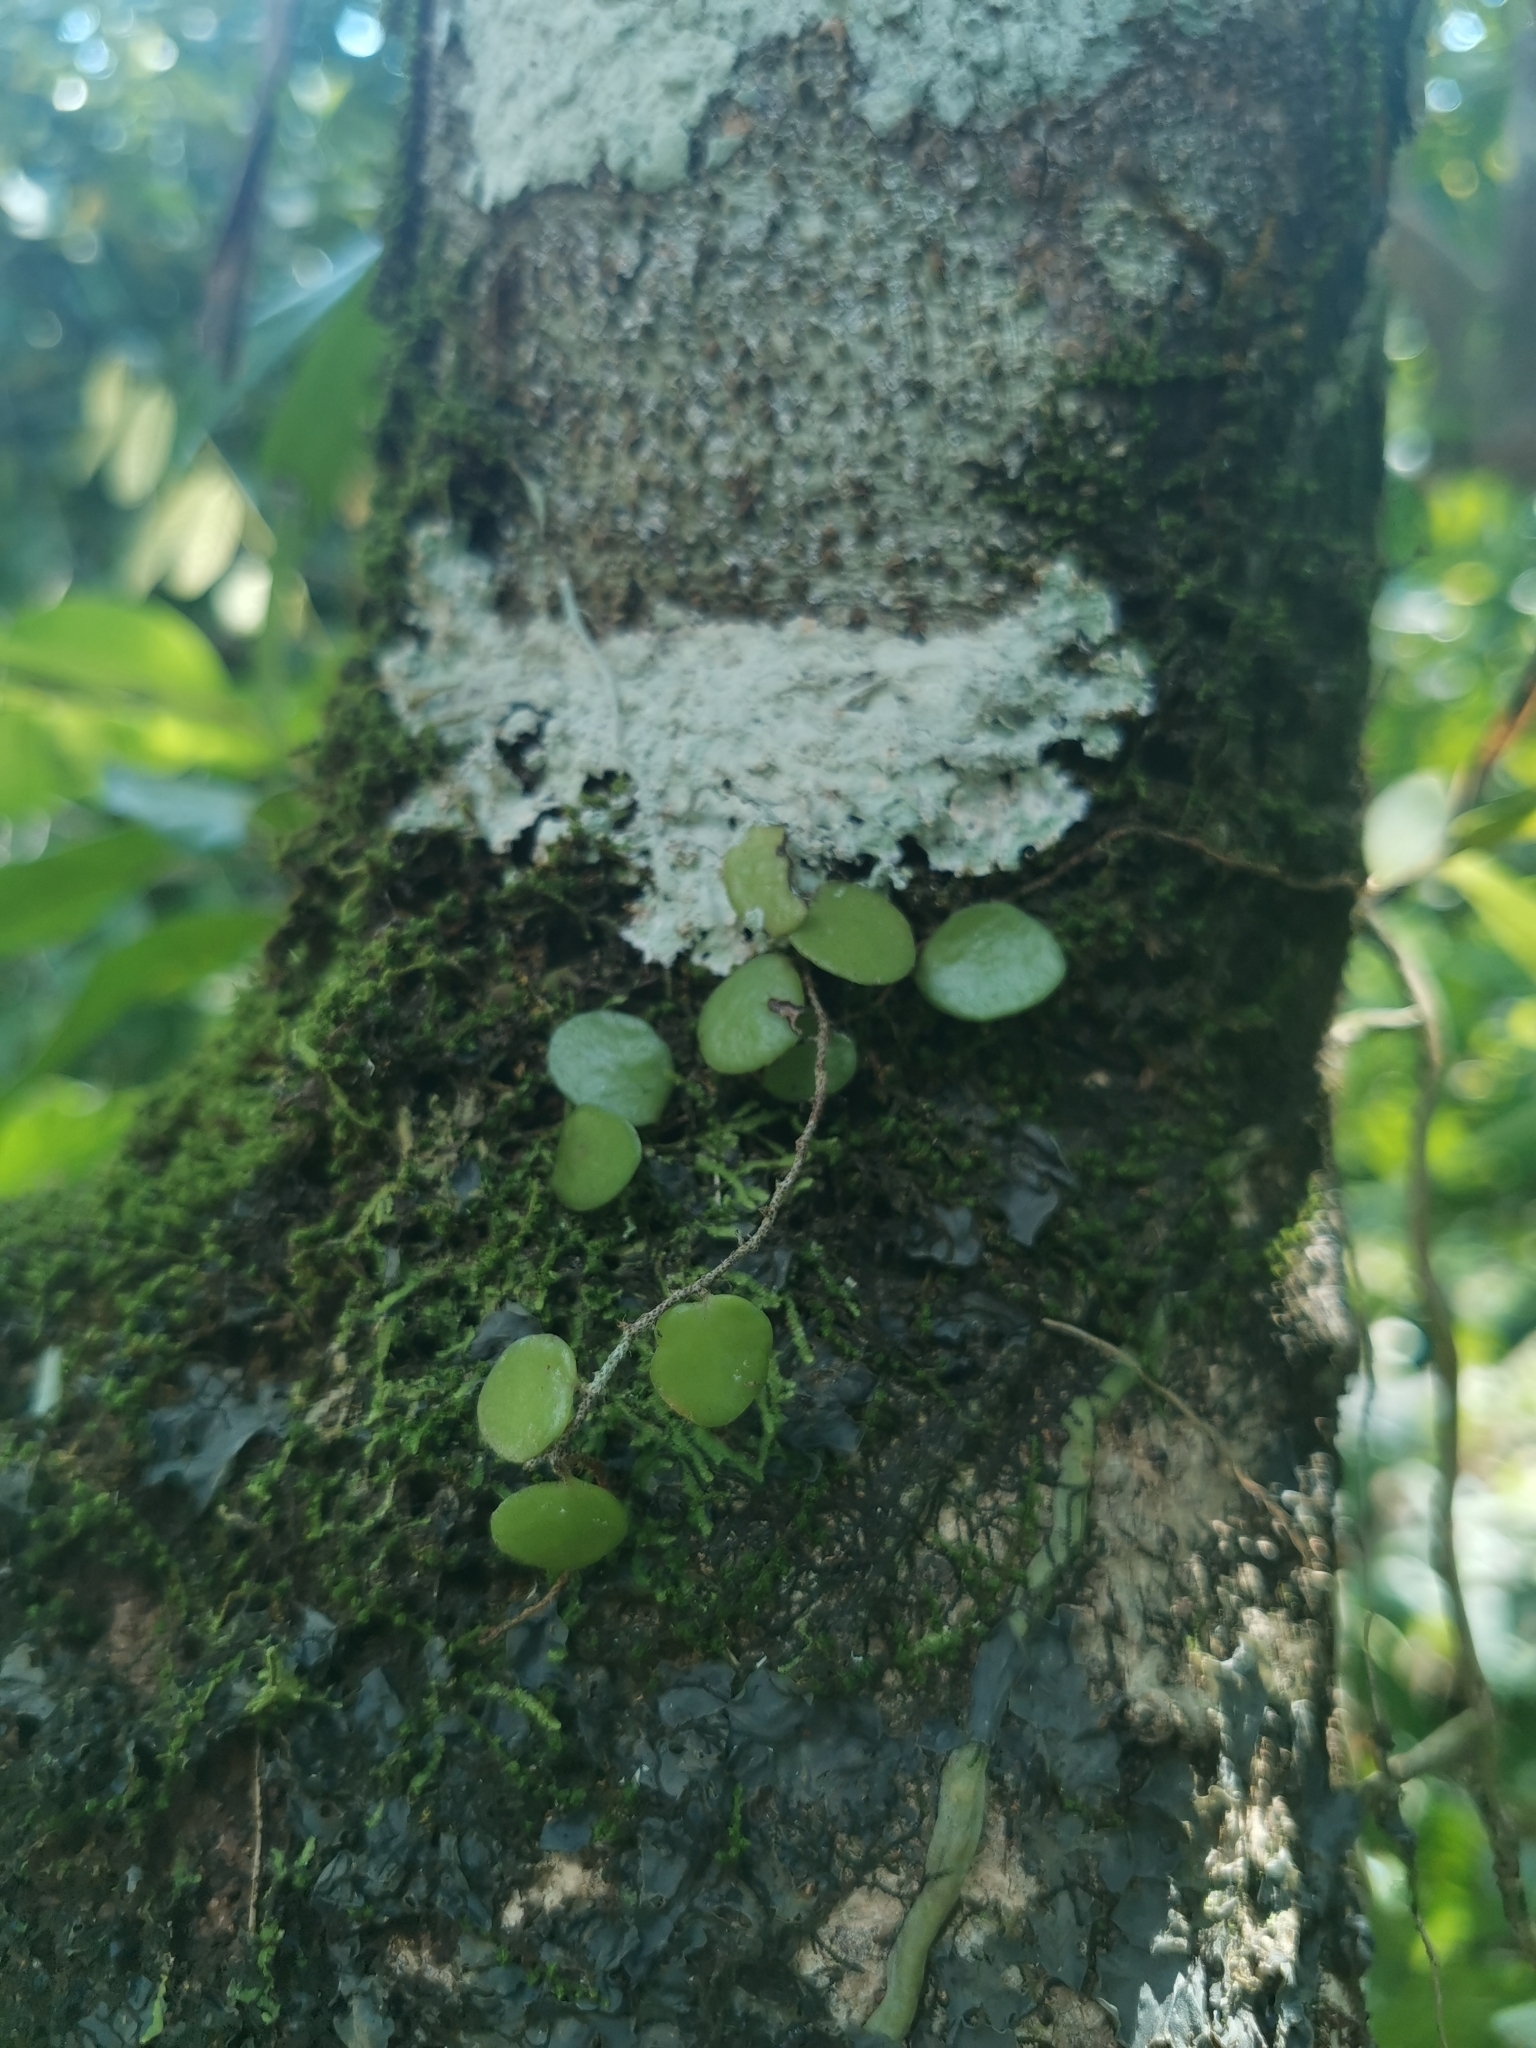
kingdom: Plantae
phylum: Tracheophyta
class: Polypodiopsida
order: Polypodiales
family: Polypodiaceae
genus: Pyrrosia
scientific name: Pyrrosia piloselloides
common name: Epiphytic creeping fern
